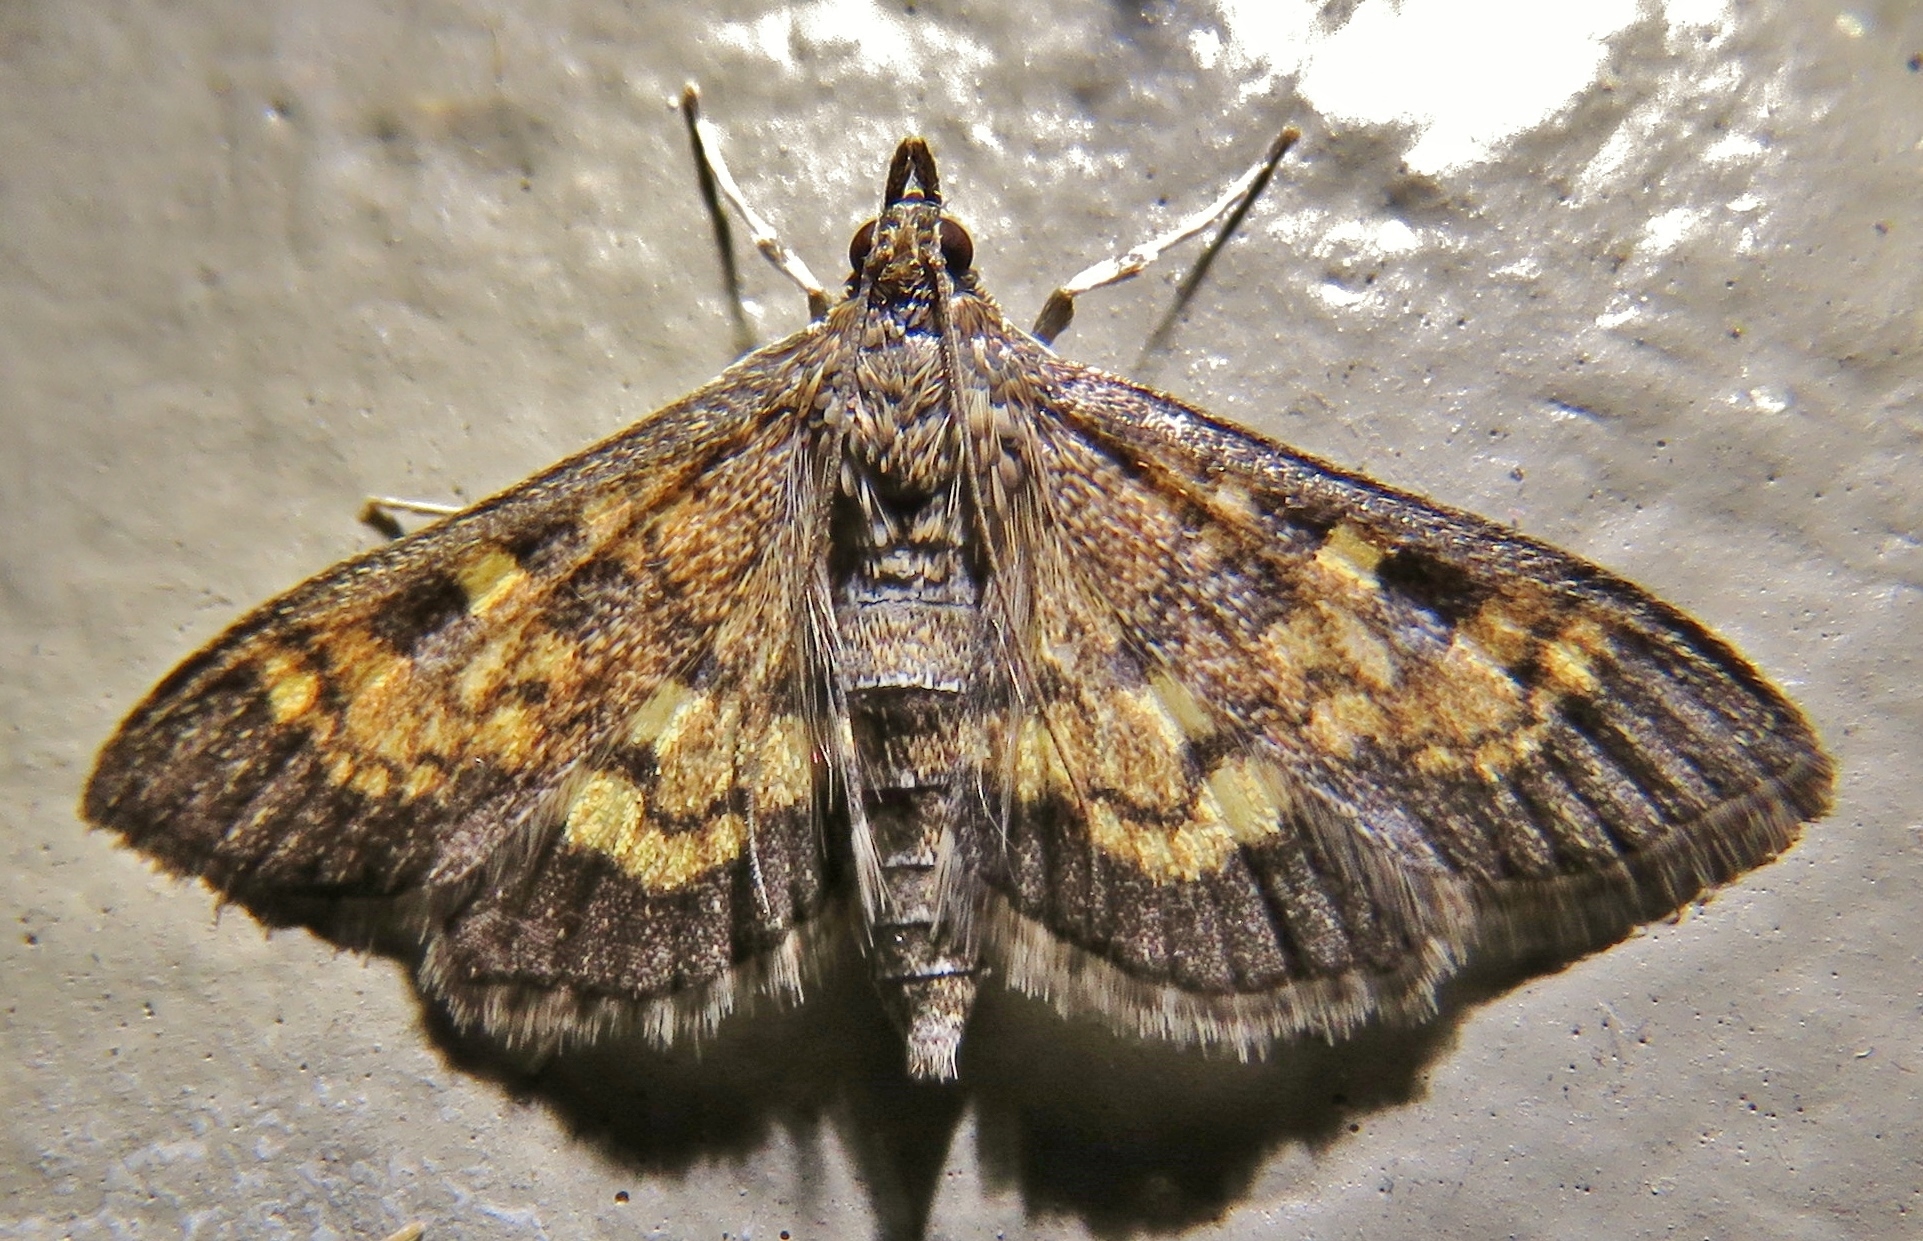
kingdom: Animalia
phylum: Arthropoda
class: Insecta
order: Lepidoptera
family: Crambidae
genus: Epipagis
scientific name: Epipagis adipaloides
